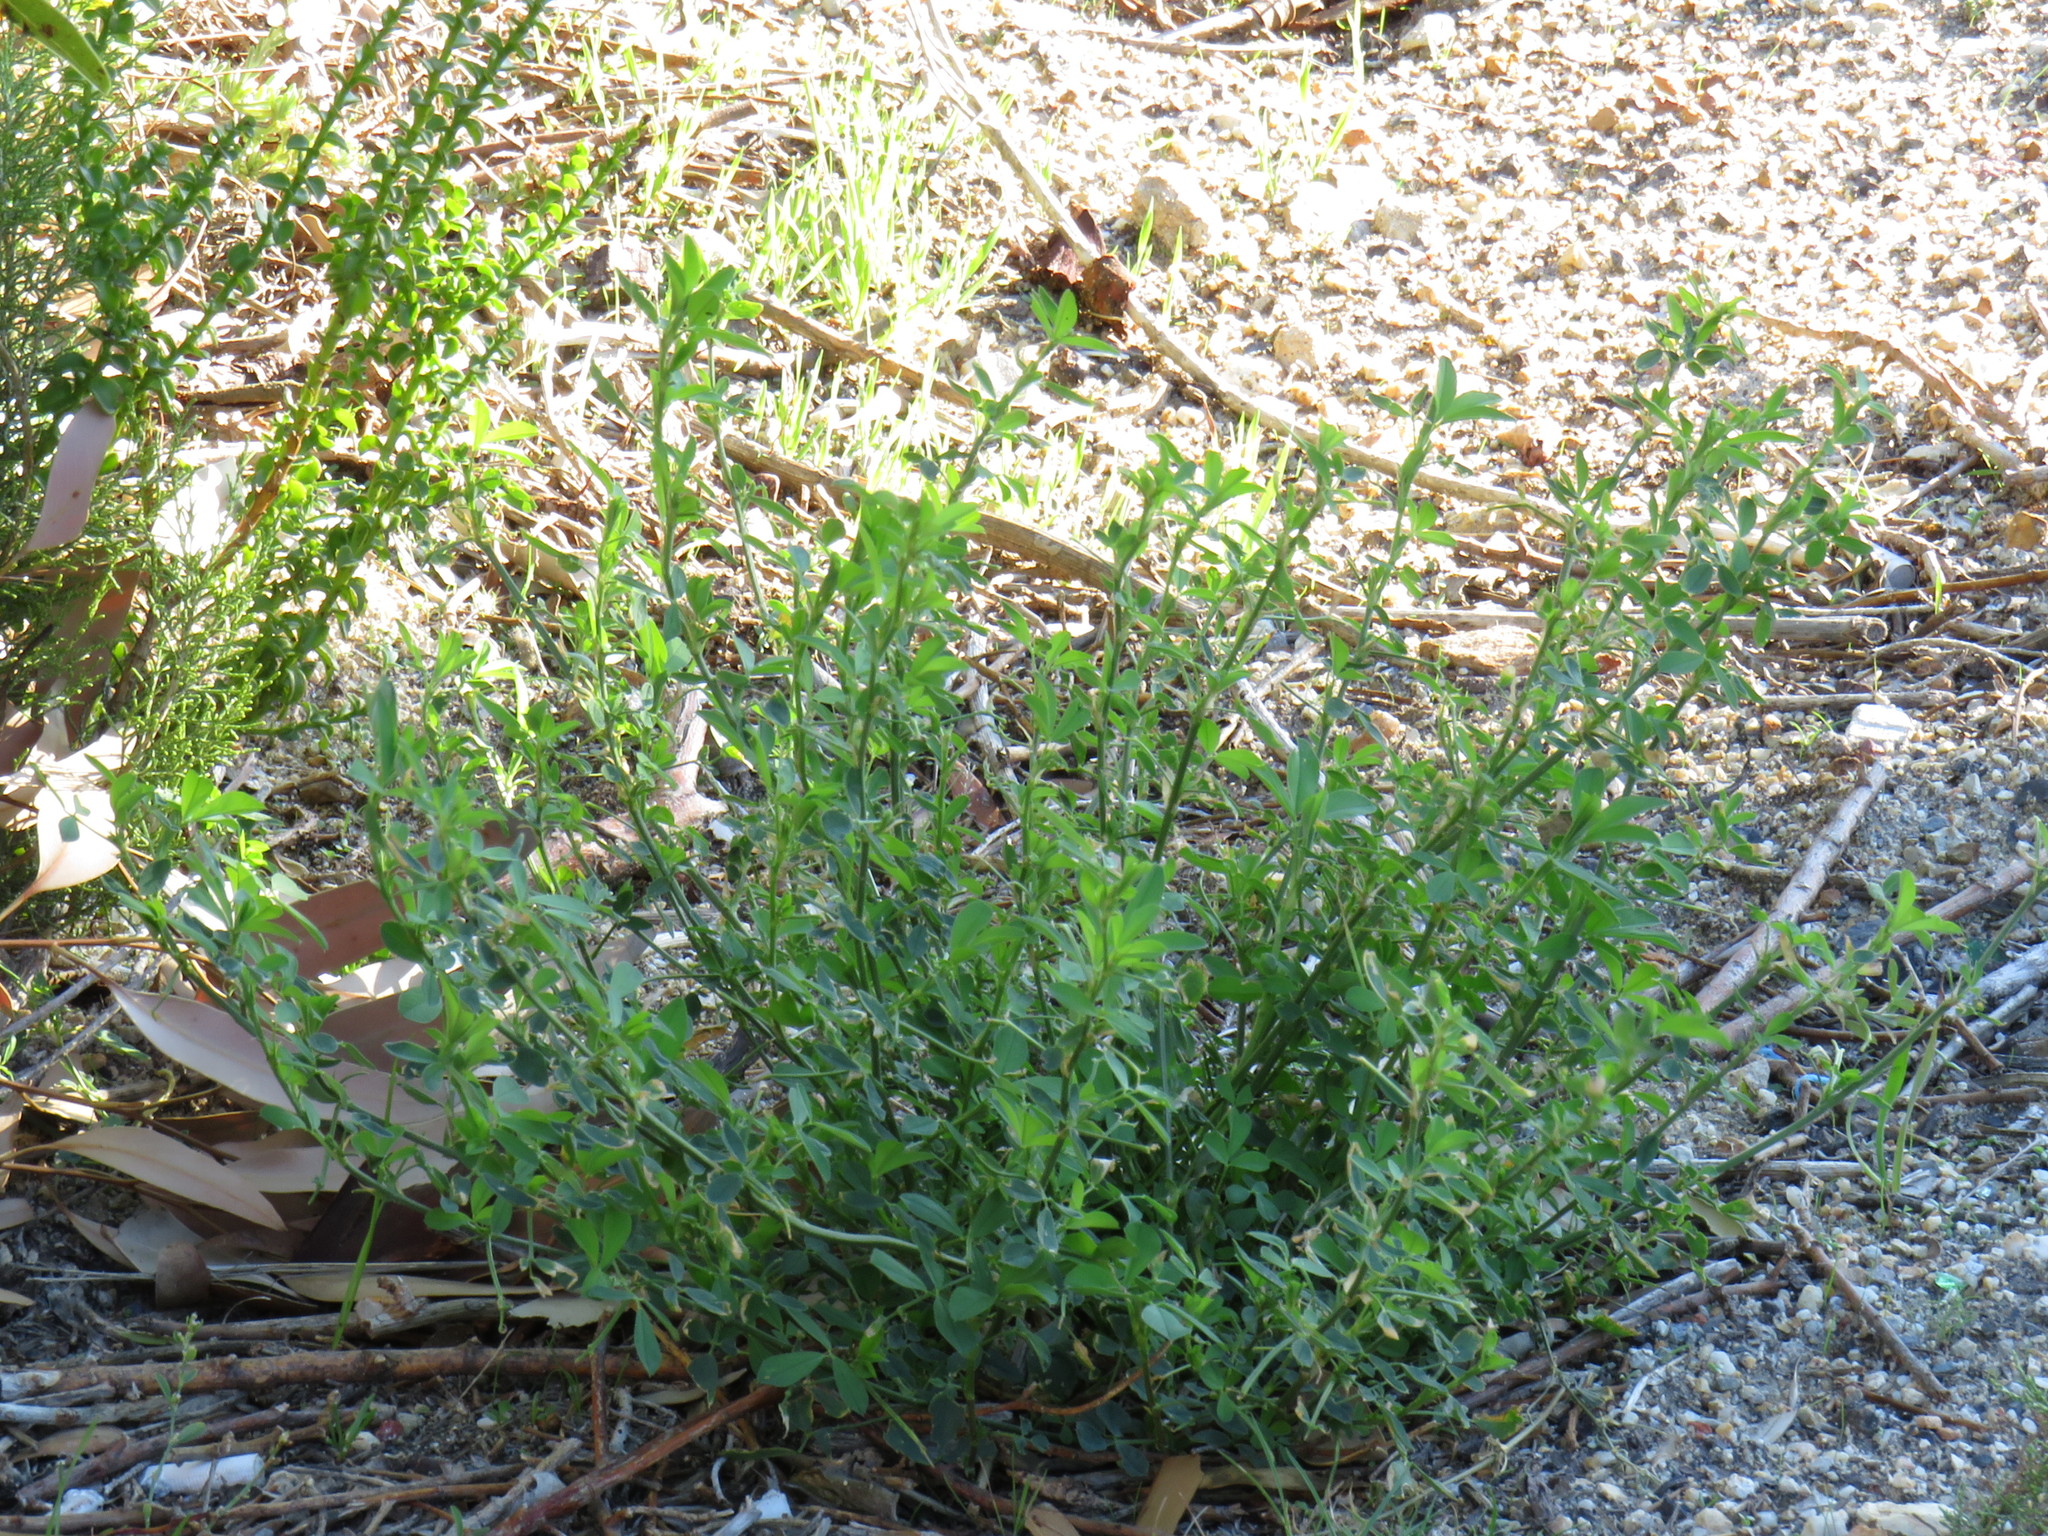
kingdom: Plantae
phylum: Tracheophyta
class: Magnoliopsida
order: Fabales
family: Fabaceae
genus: Medicago
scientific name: Medicago sativa
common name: Alfalfa
